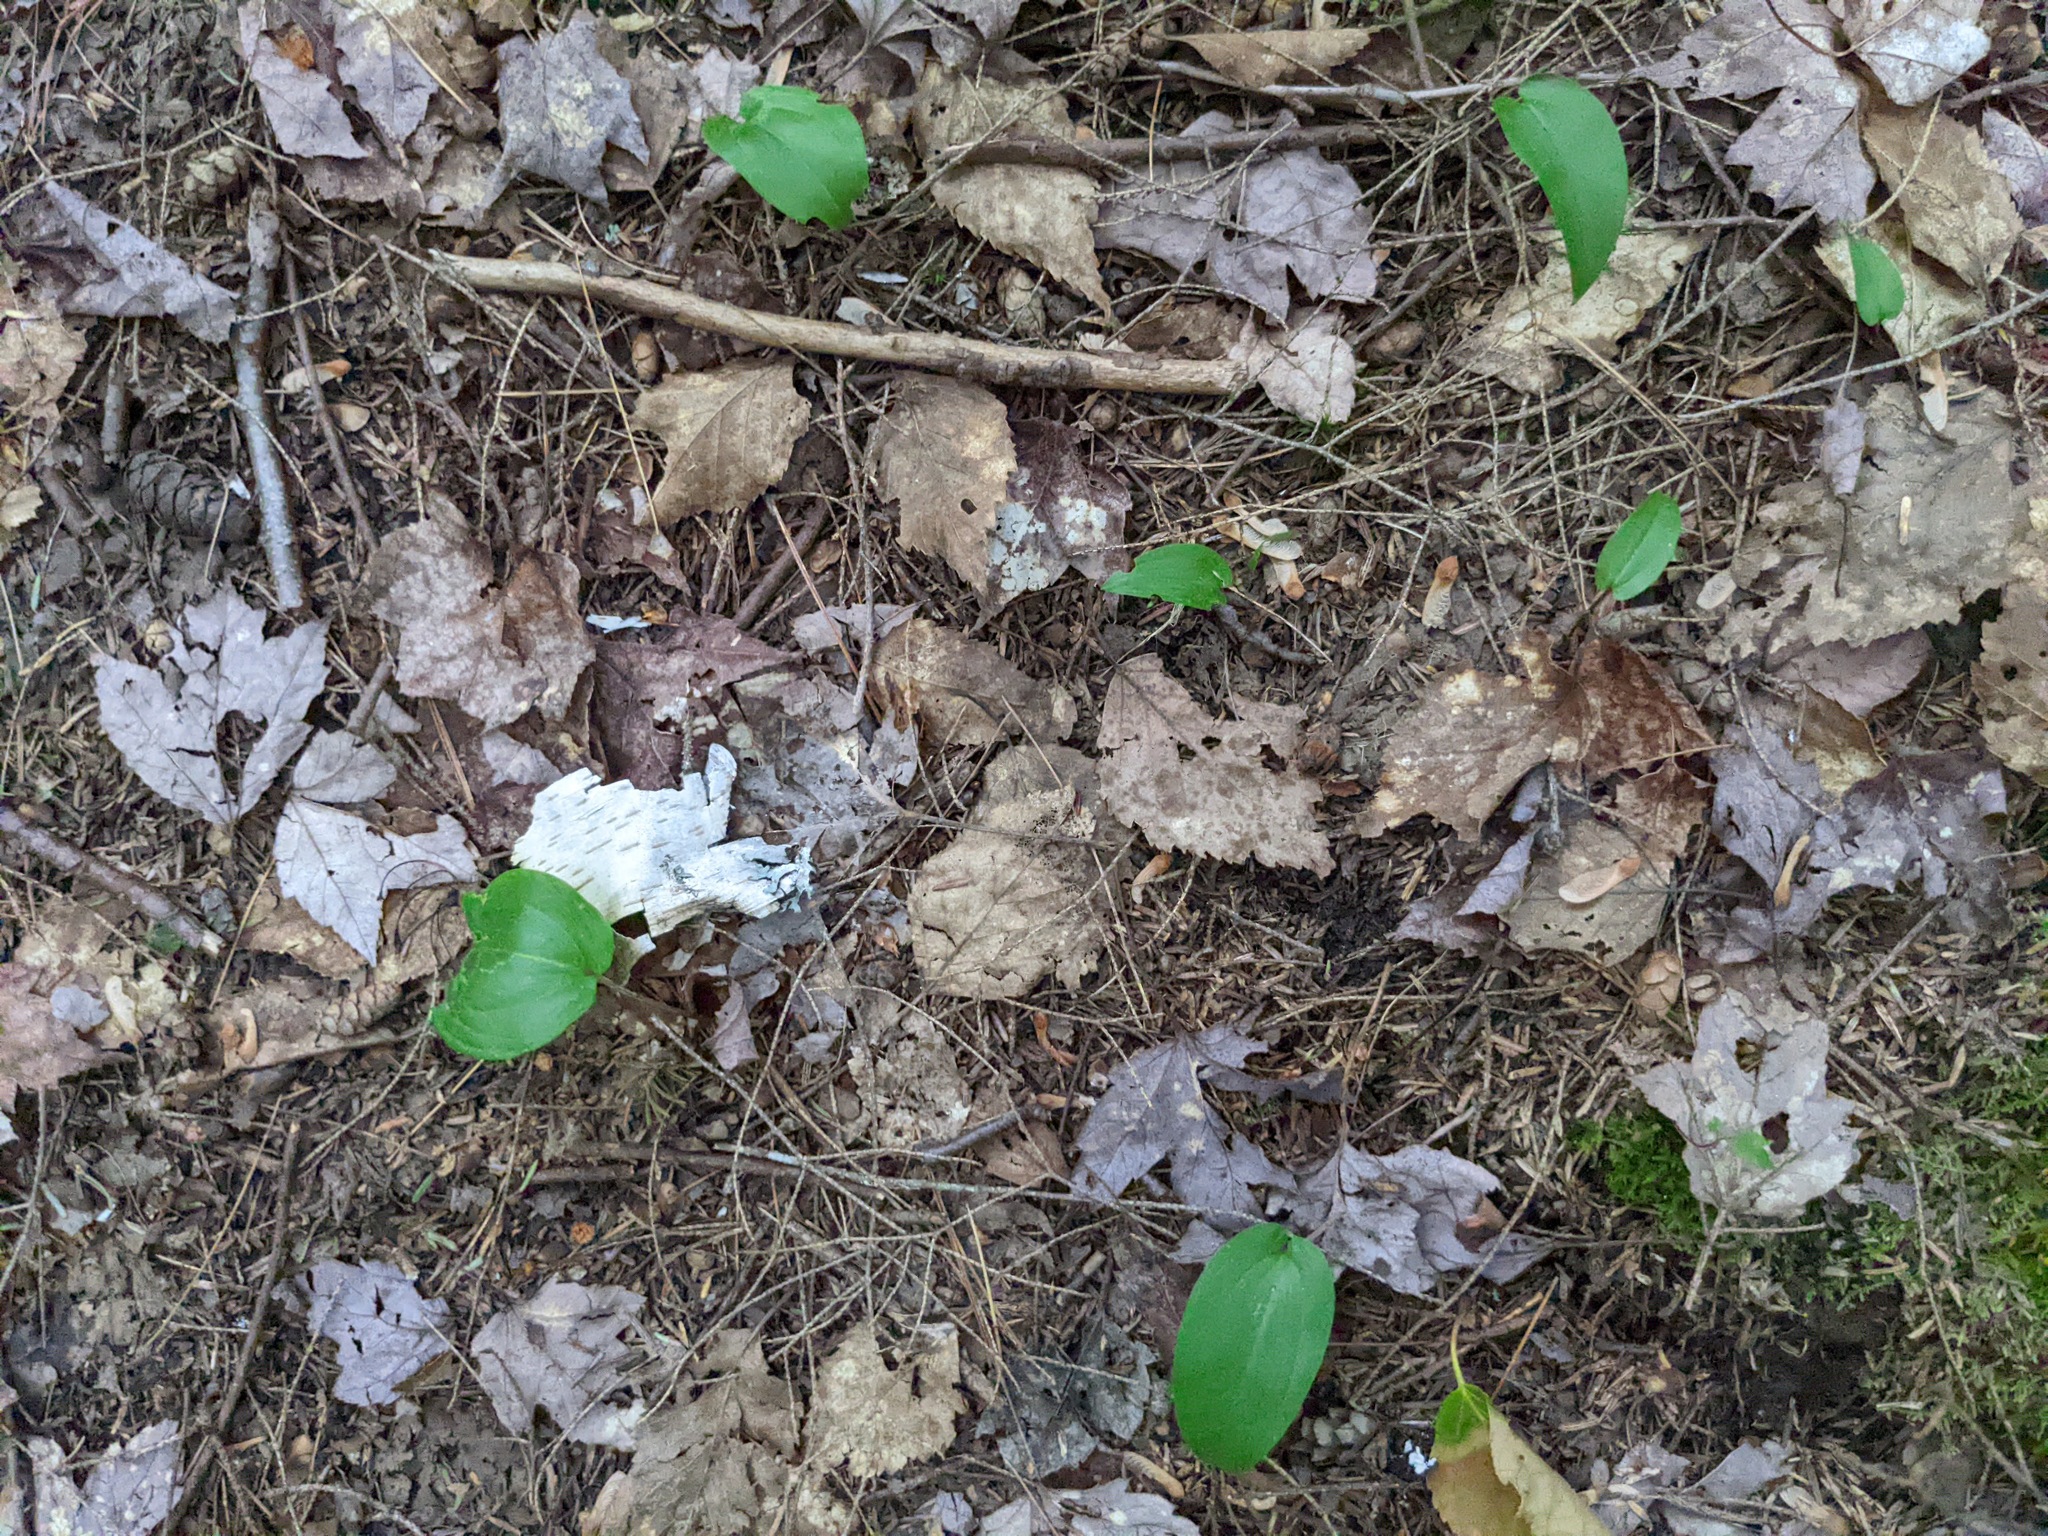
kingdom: Plantae
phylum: Tracheophyta
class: Liliopsida
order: Asparagales
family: Asparagaceae
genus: Maianthemum
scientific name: Maianthemum canadense
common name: False lily-of-the-valley
